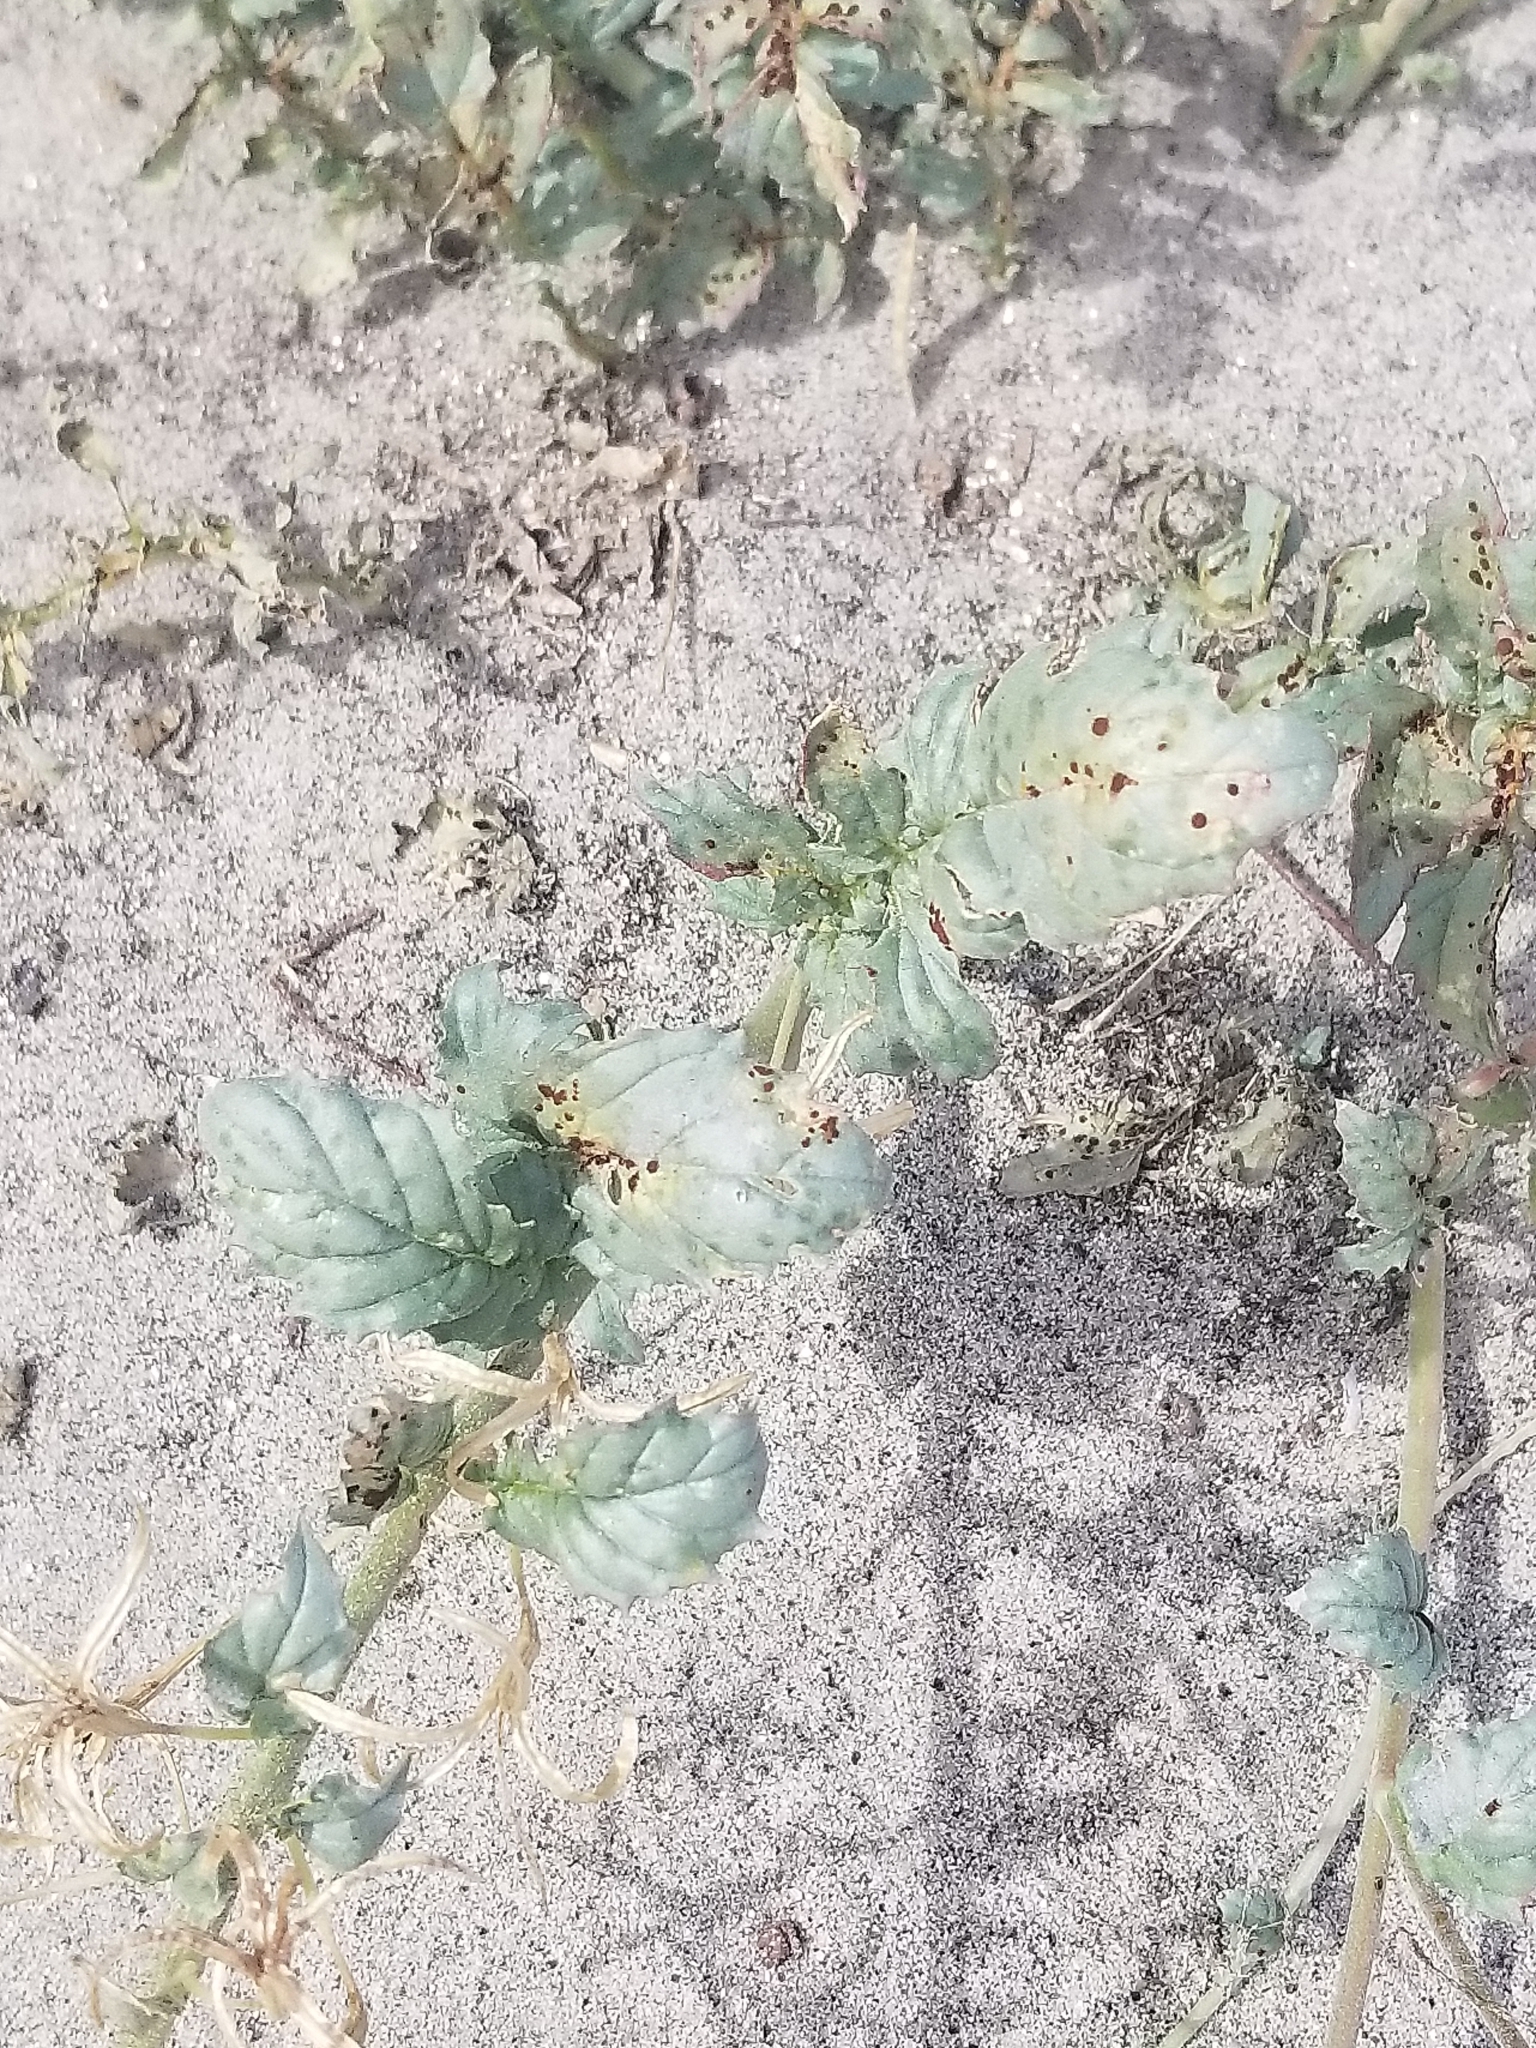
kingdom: Plantae
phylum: Tracheophyta
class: Magnoliopsida
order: Myrtales
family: Onagraceae
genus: Chylismia
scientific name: Chylismia claviformis
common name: Browneyes
